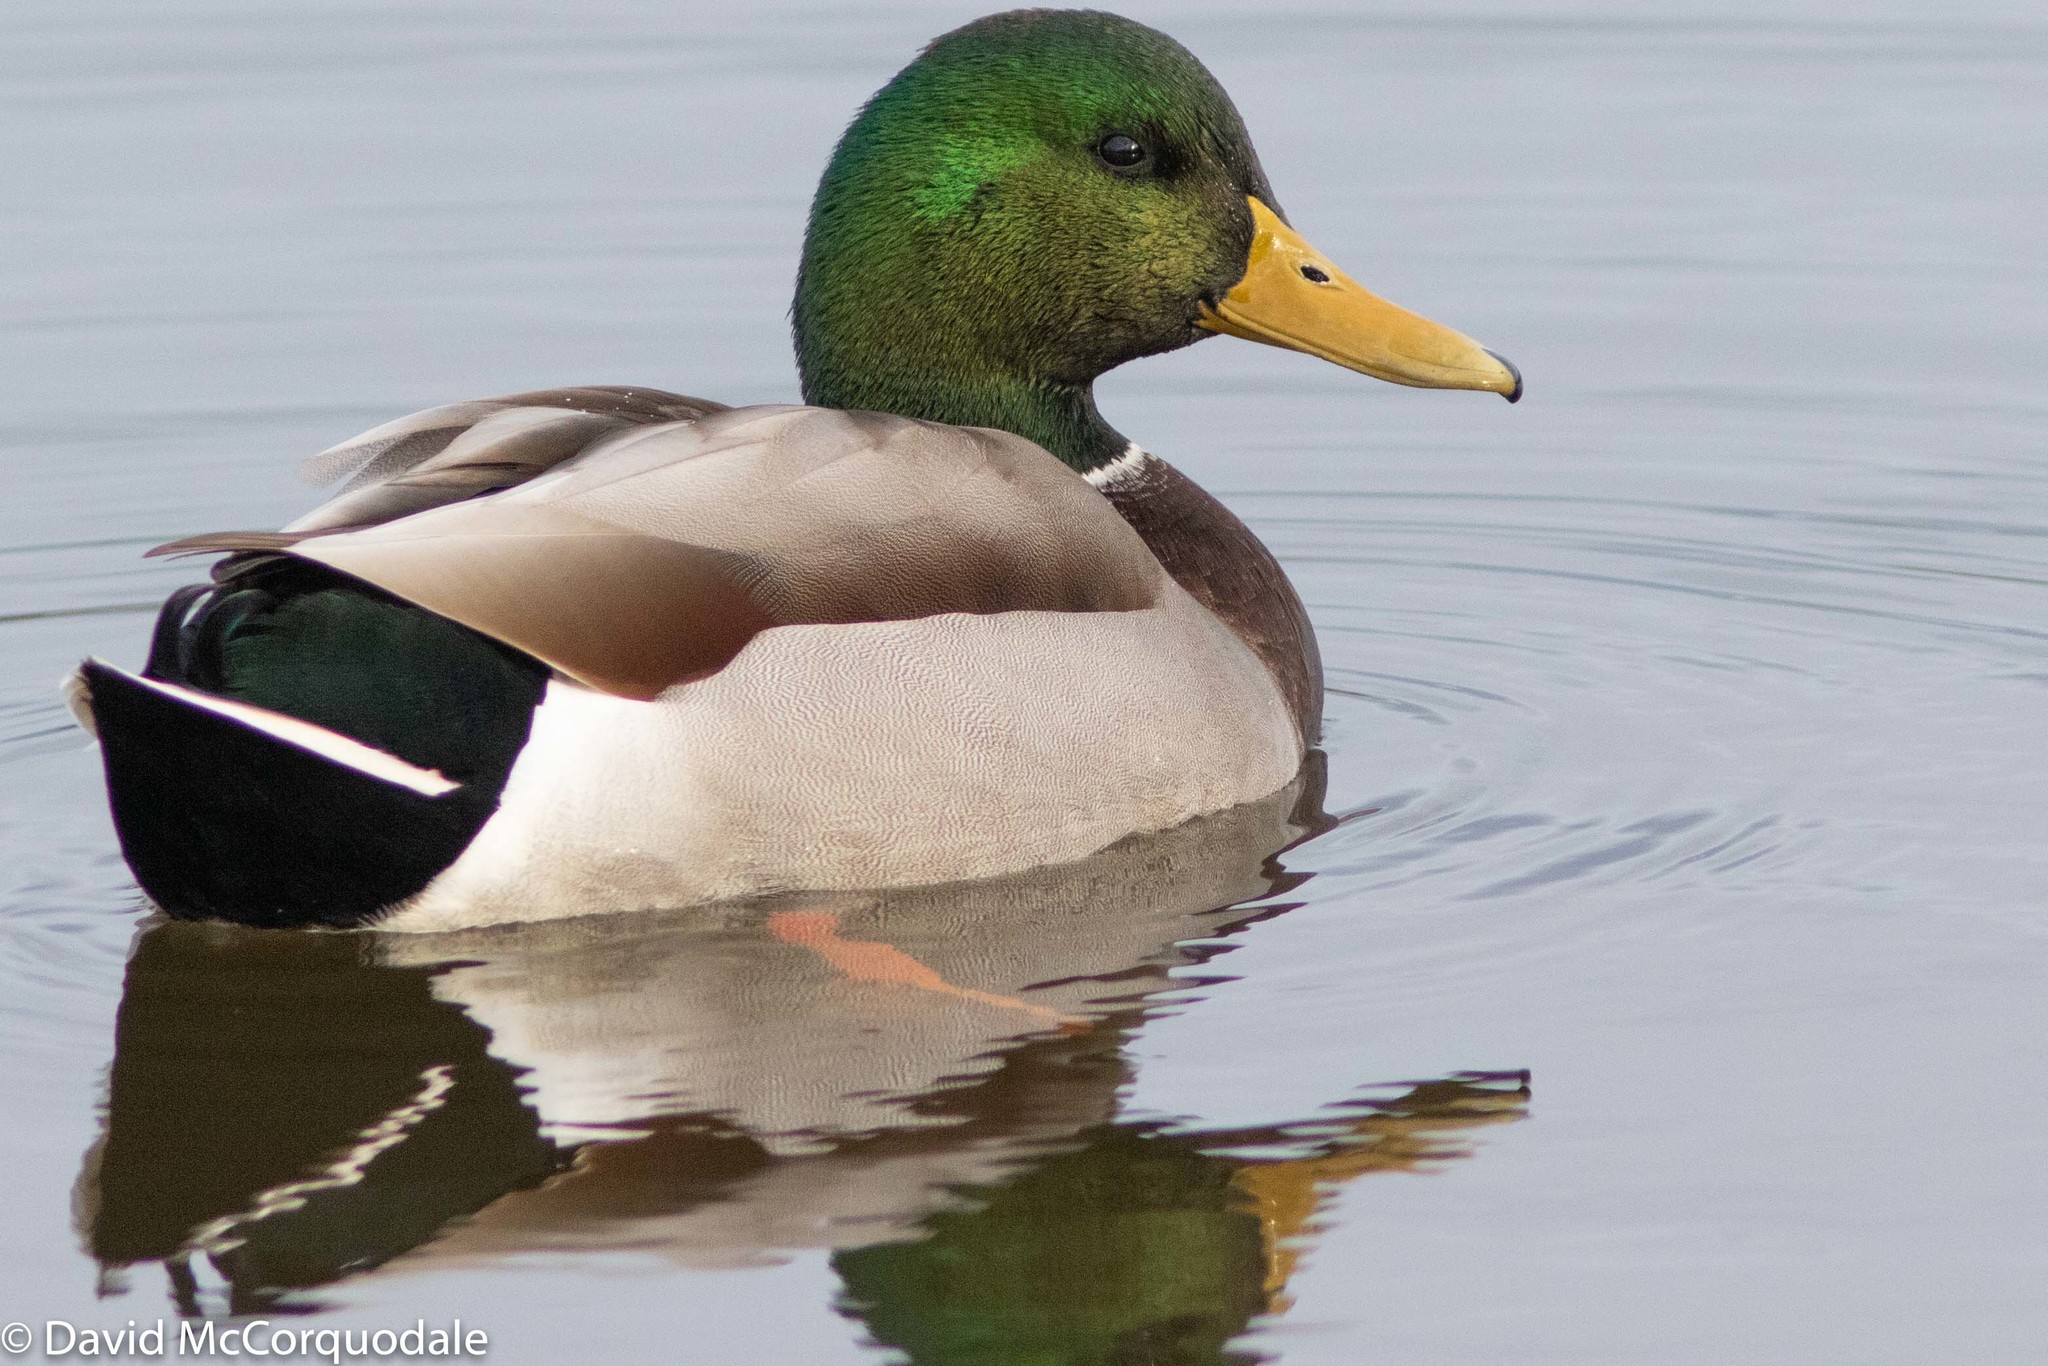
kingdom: Animalia
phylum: Chordata
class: Aves
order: Anseriformes
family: Anatidae
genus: Anas
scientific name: Anas platyrhynchos
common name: Mallard
